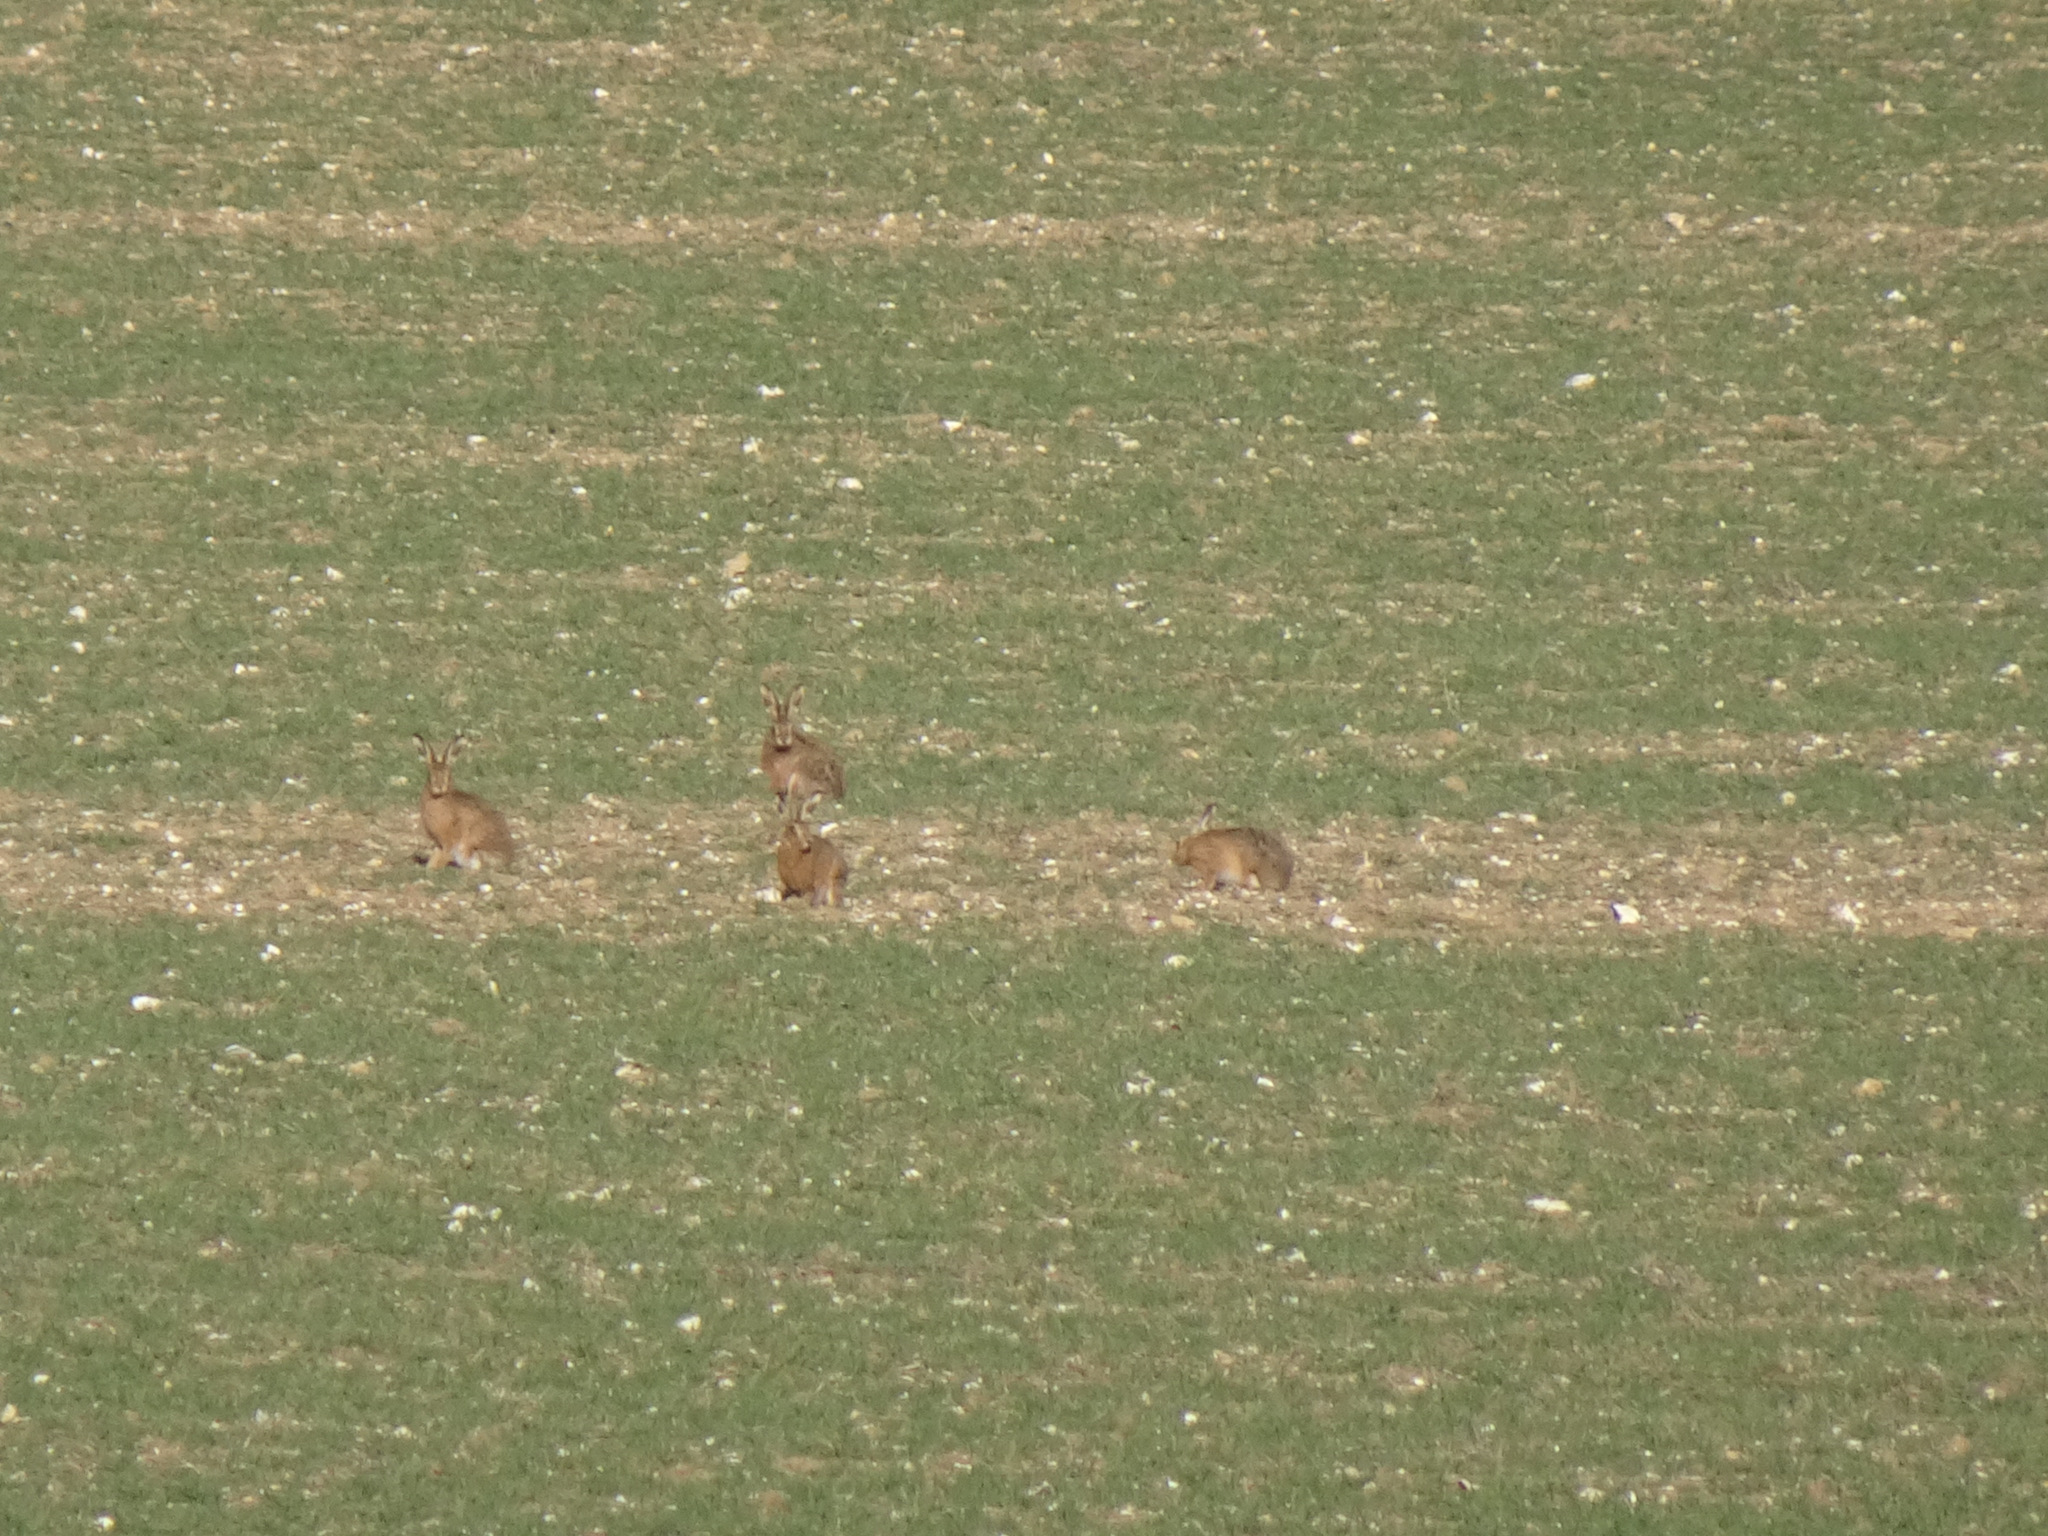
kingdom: Animalia
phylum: Chordata
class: Mammalia
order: Lagomorpha
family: Leporidae
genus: Lepus
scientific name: Lepus europaeus
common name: European hare
